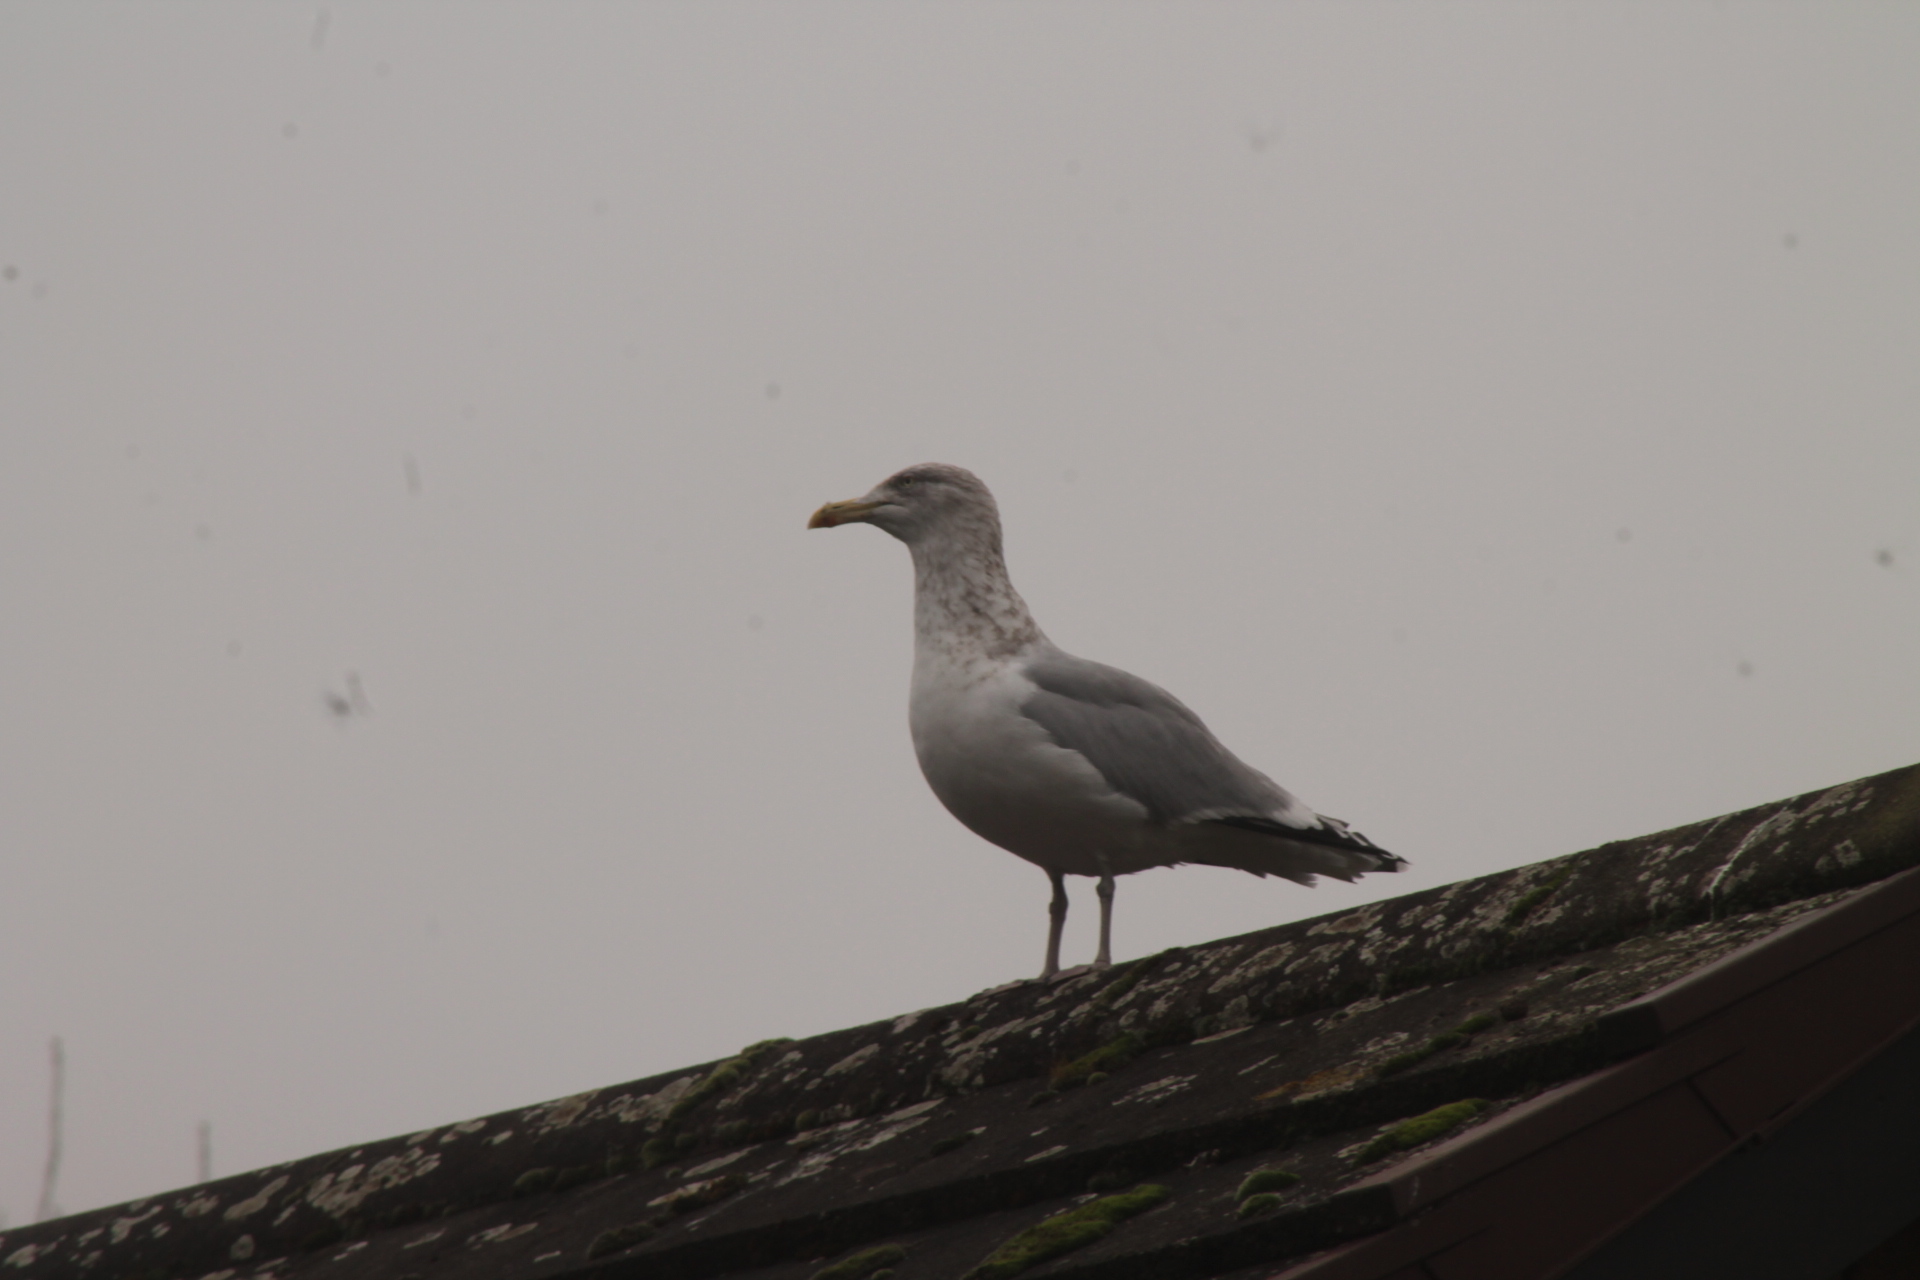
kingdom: Animalia
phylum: Chordata
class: Aves
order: Charadriiformes
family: Laridae
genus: Larus
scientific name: Larus argentatus
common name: Herring gull
